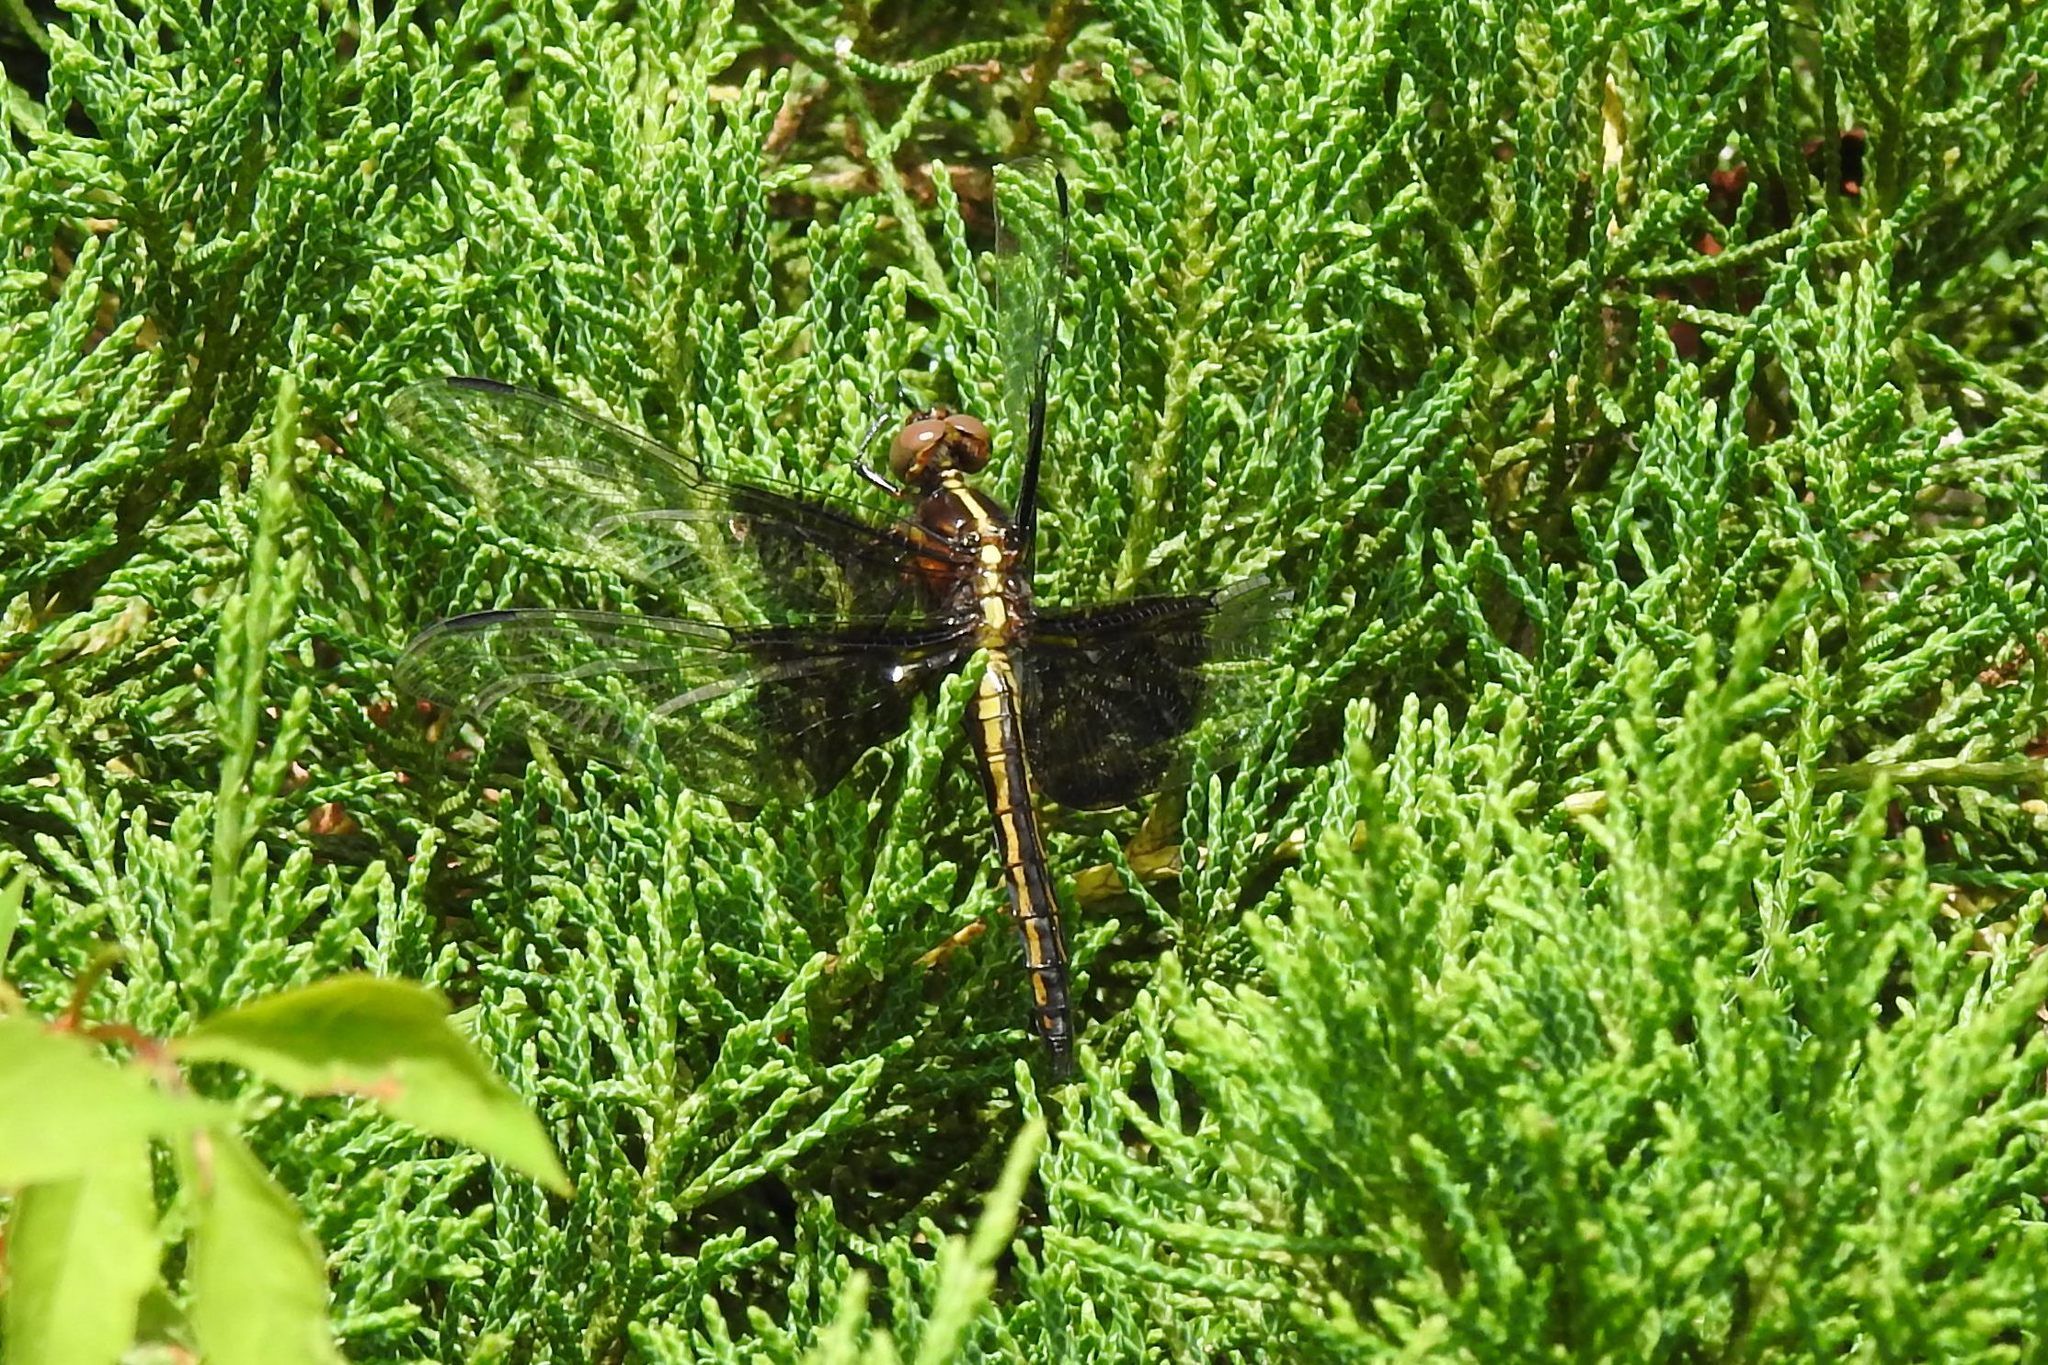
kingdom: Animalia
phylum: Arthropoda
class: Insecta
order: Odonata
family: Libellulidae
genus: Libellula
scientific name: Libellula luctuosa
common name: Widow skimmer
